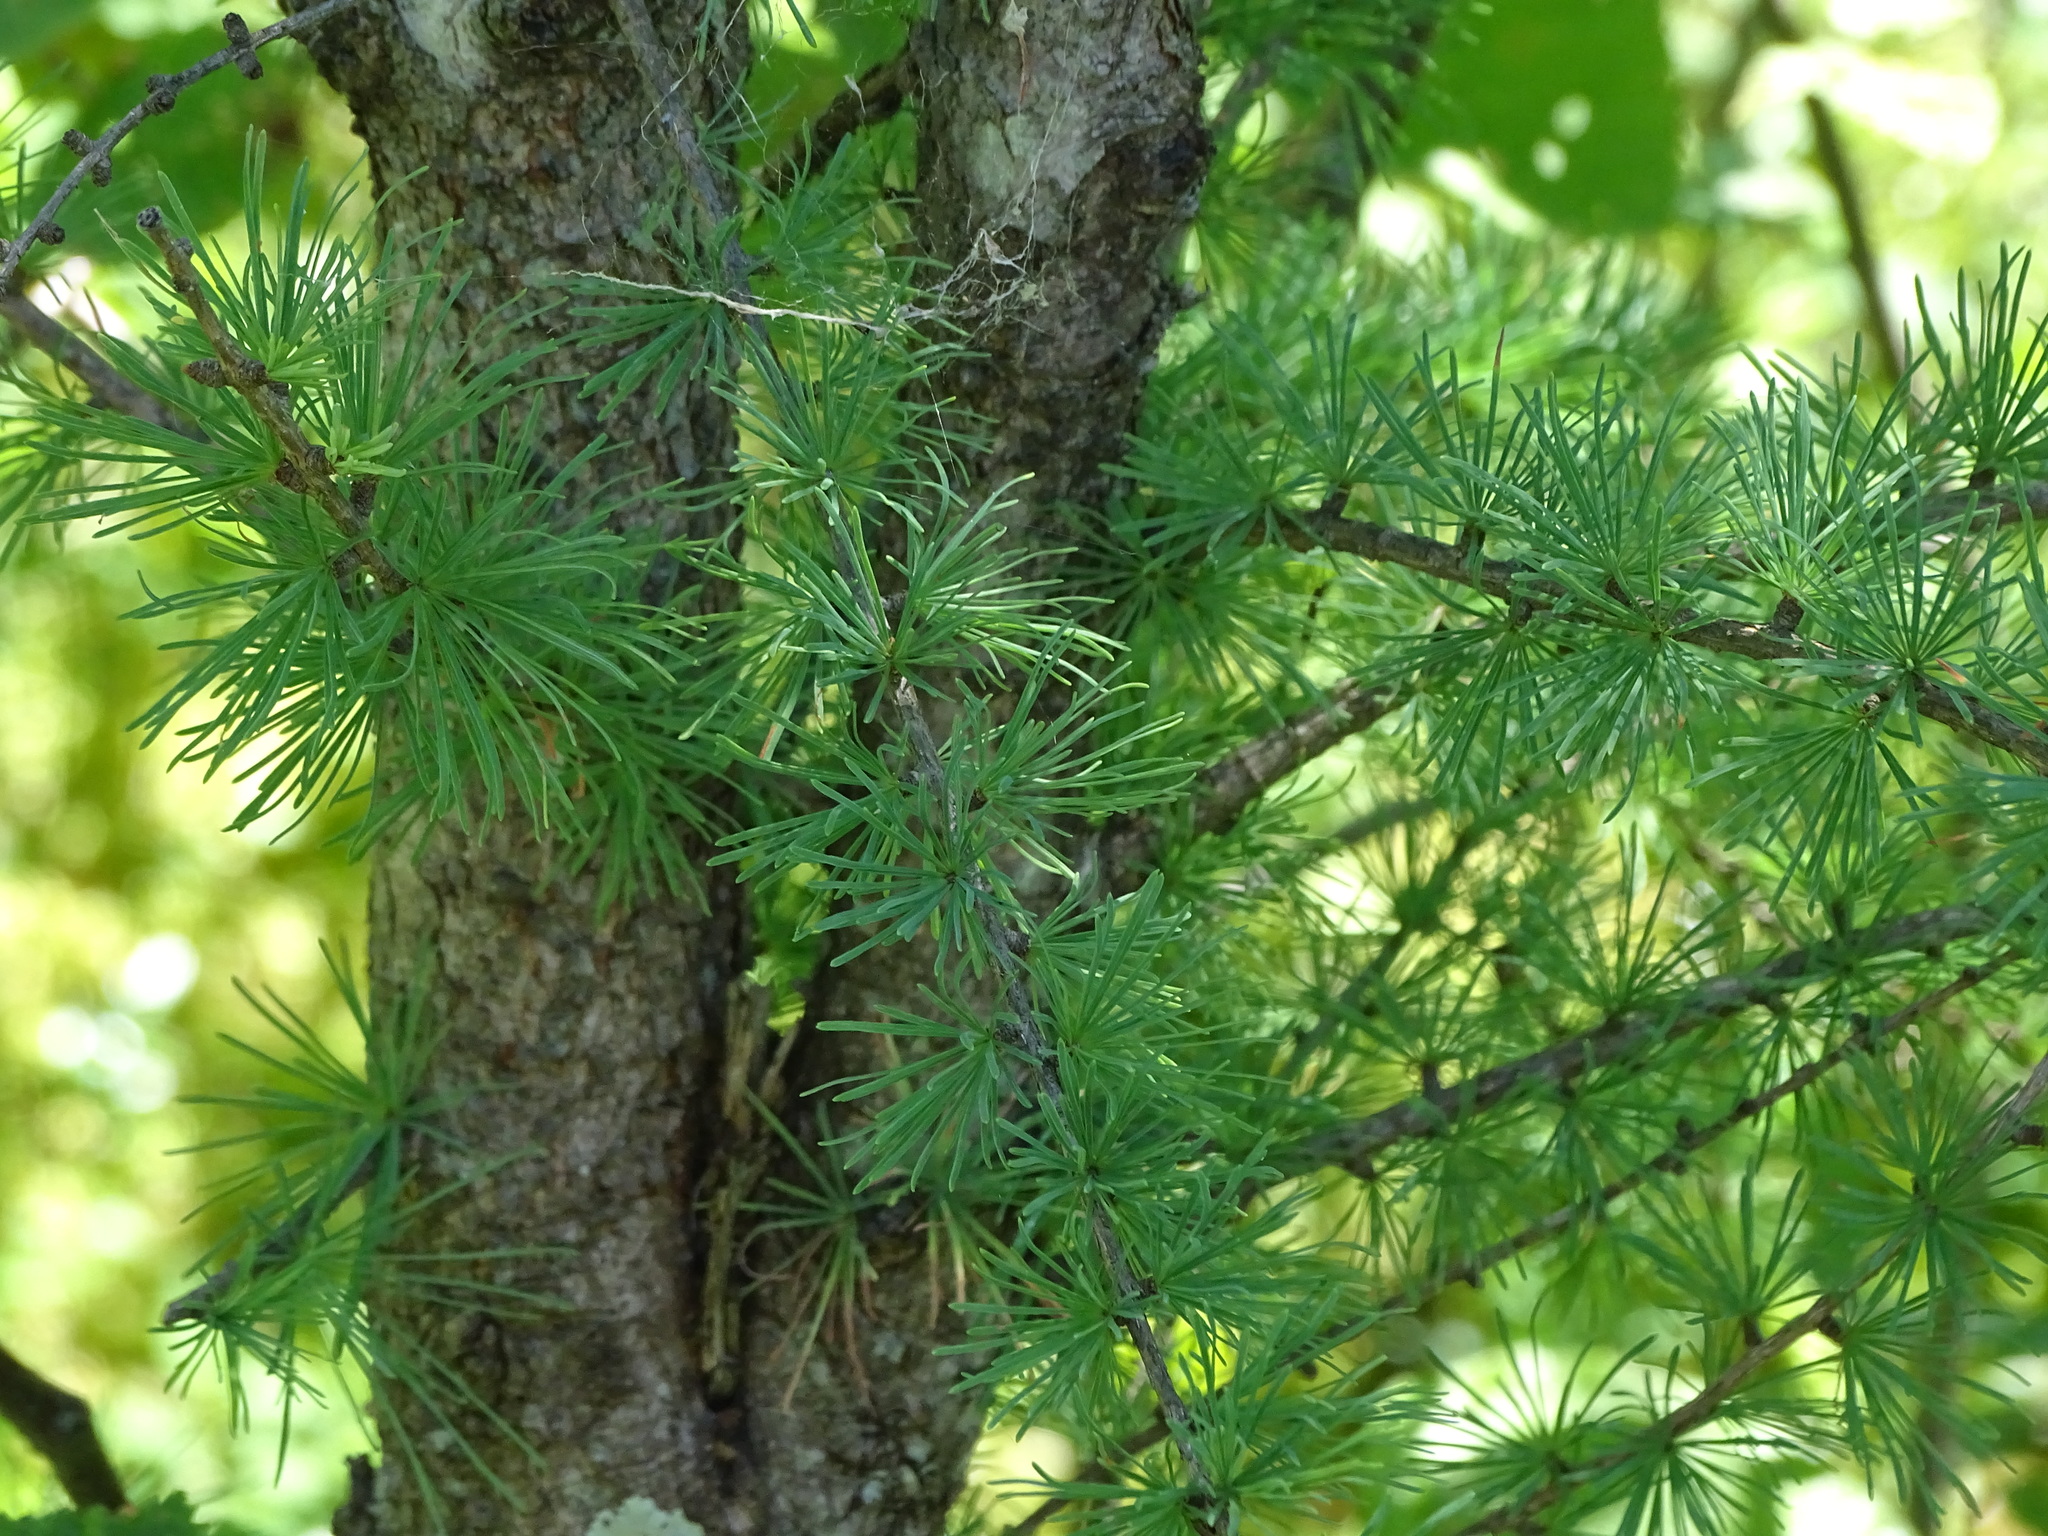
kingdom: Plantae
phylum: Tracheophyta
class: Pinopsida
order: Pinales
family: Pinaceae
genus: Larix
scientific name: Larix laricina
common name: American larch
